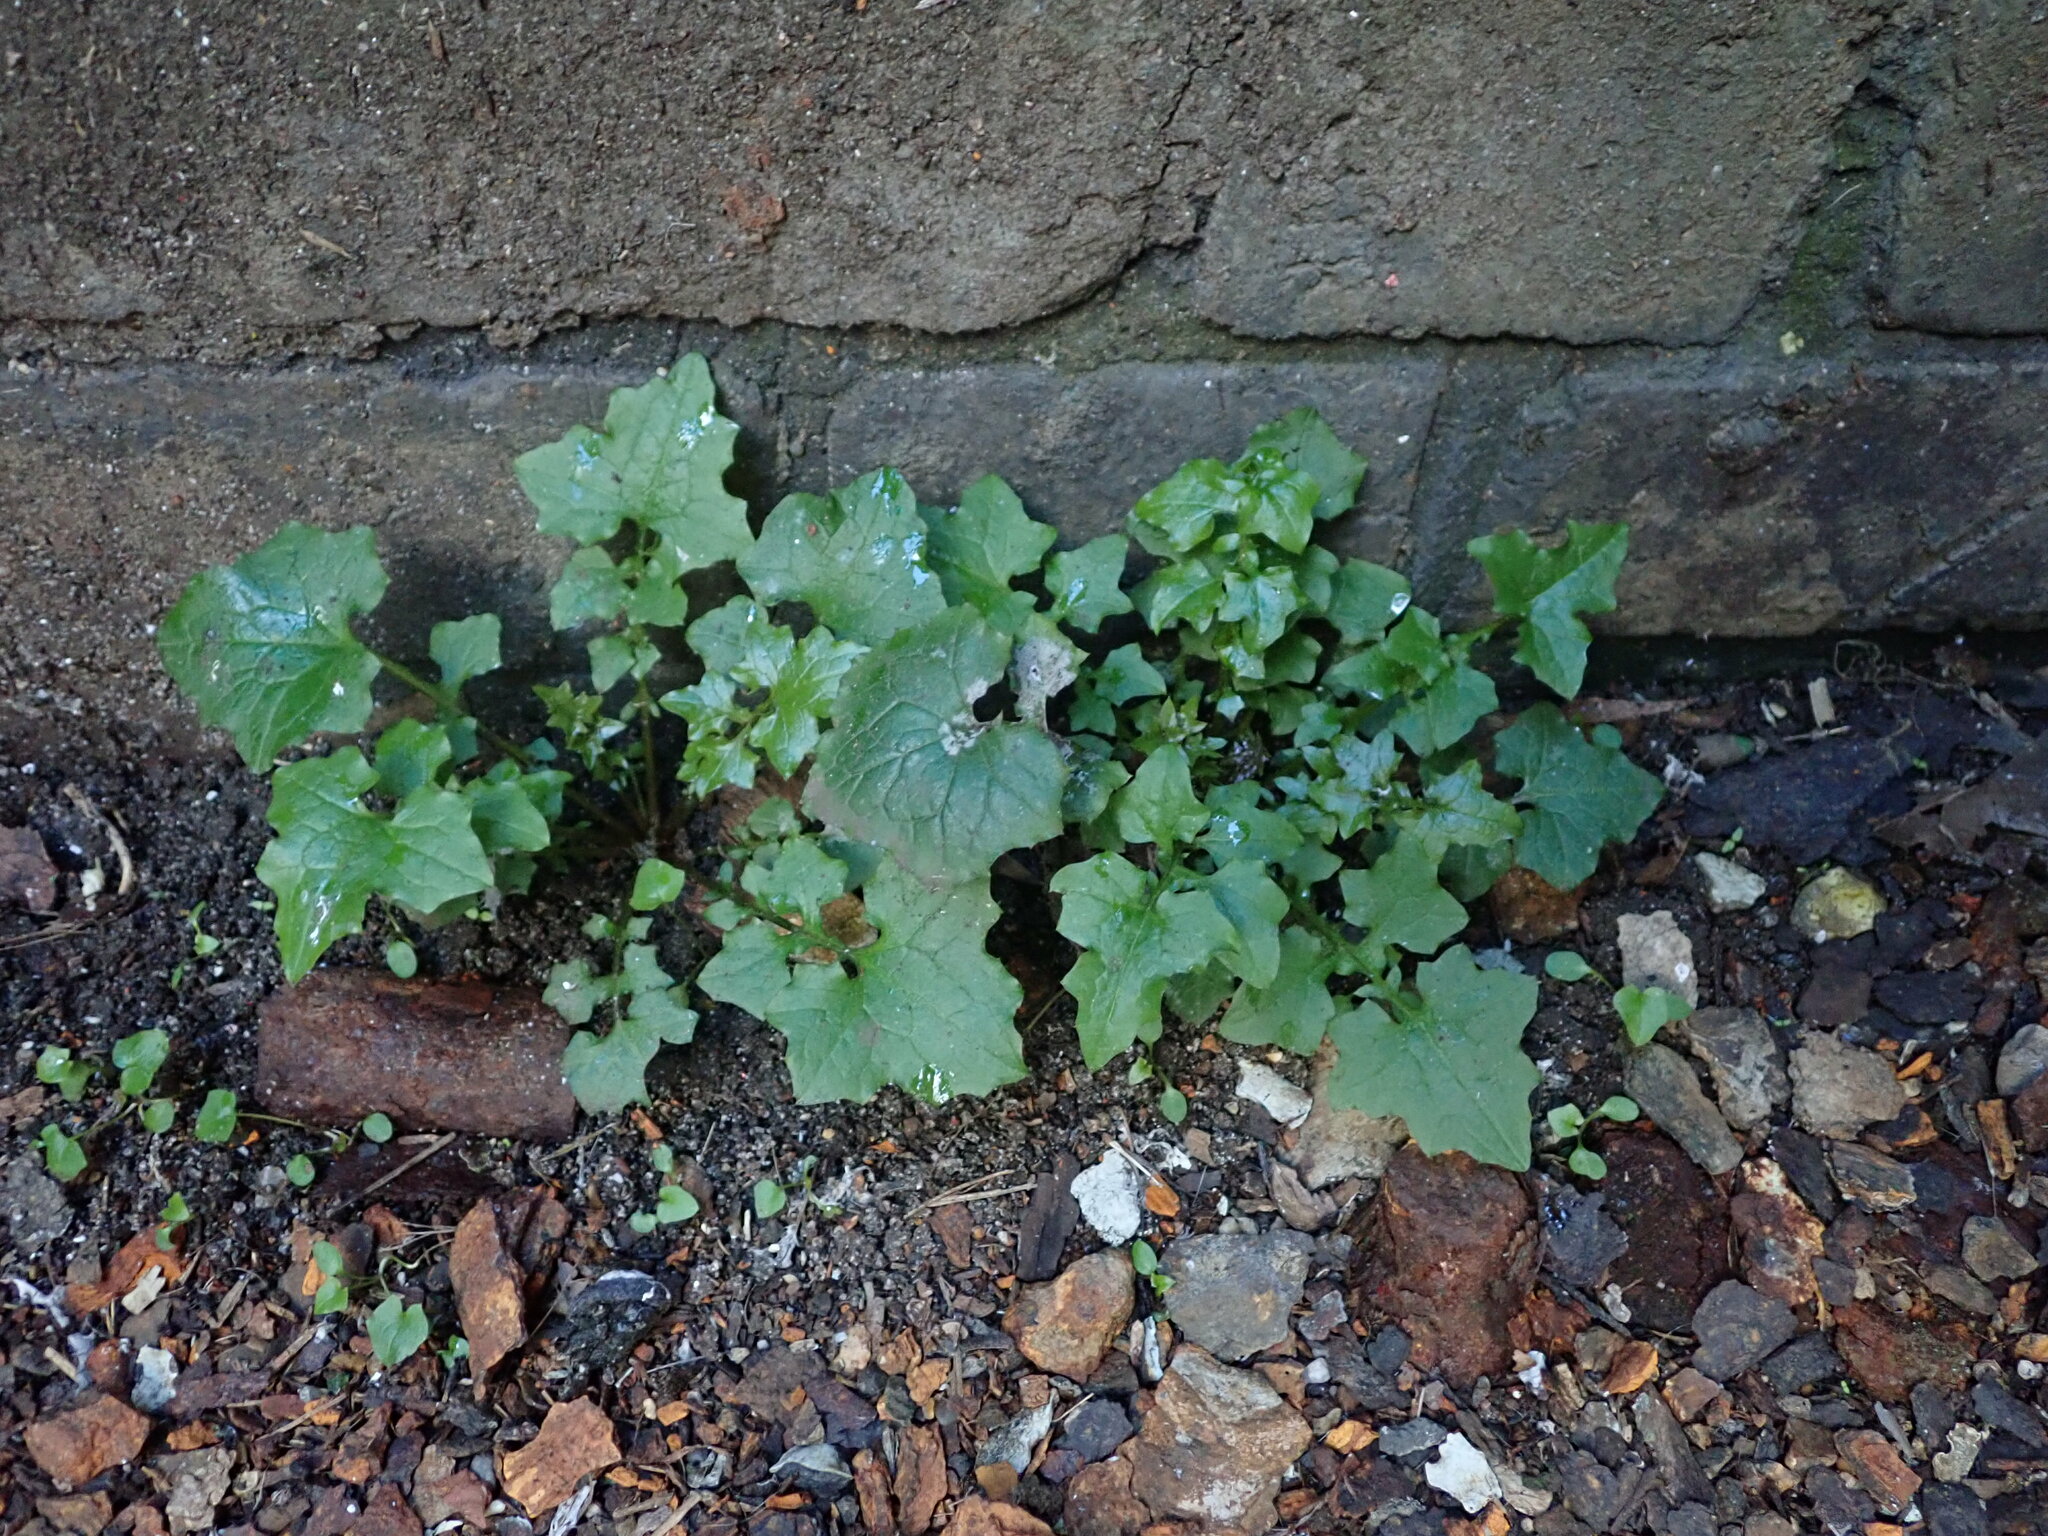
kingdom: Plantae
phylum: Tracheophyta
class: Magnoliopsida
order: Asterales
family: Asteraceae
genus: Mycelis
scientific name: Mycelis muralis
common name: Wall lettuce
